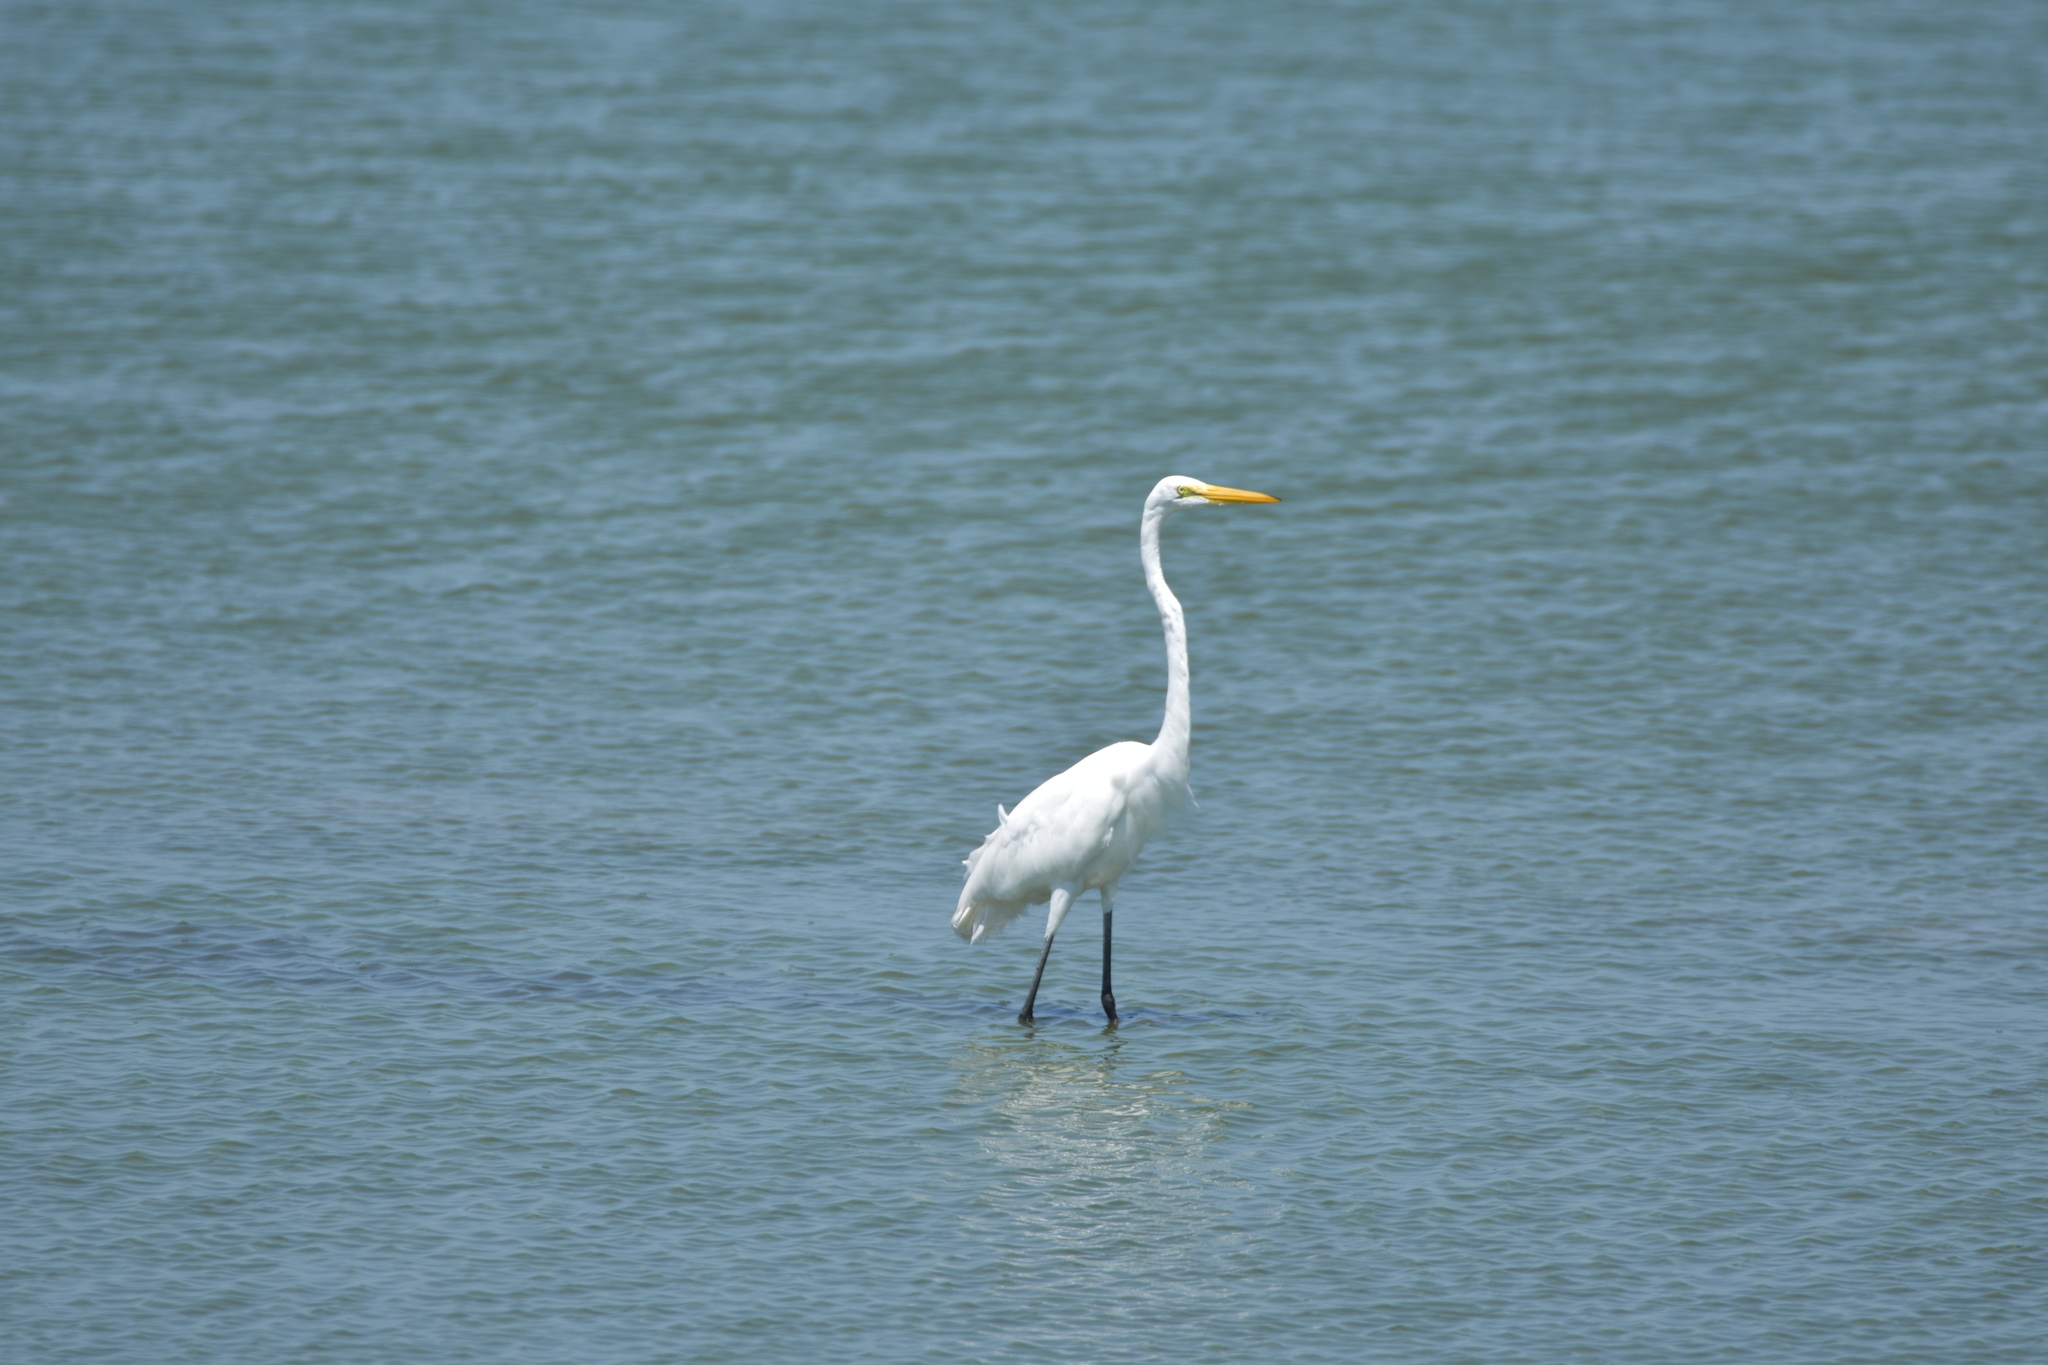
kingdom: Animalia
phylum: Chordata
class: Aves
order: Pelecaniformes
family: Ardeidae
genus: Ardea
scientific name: Ardea alba
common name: Great egret
